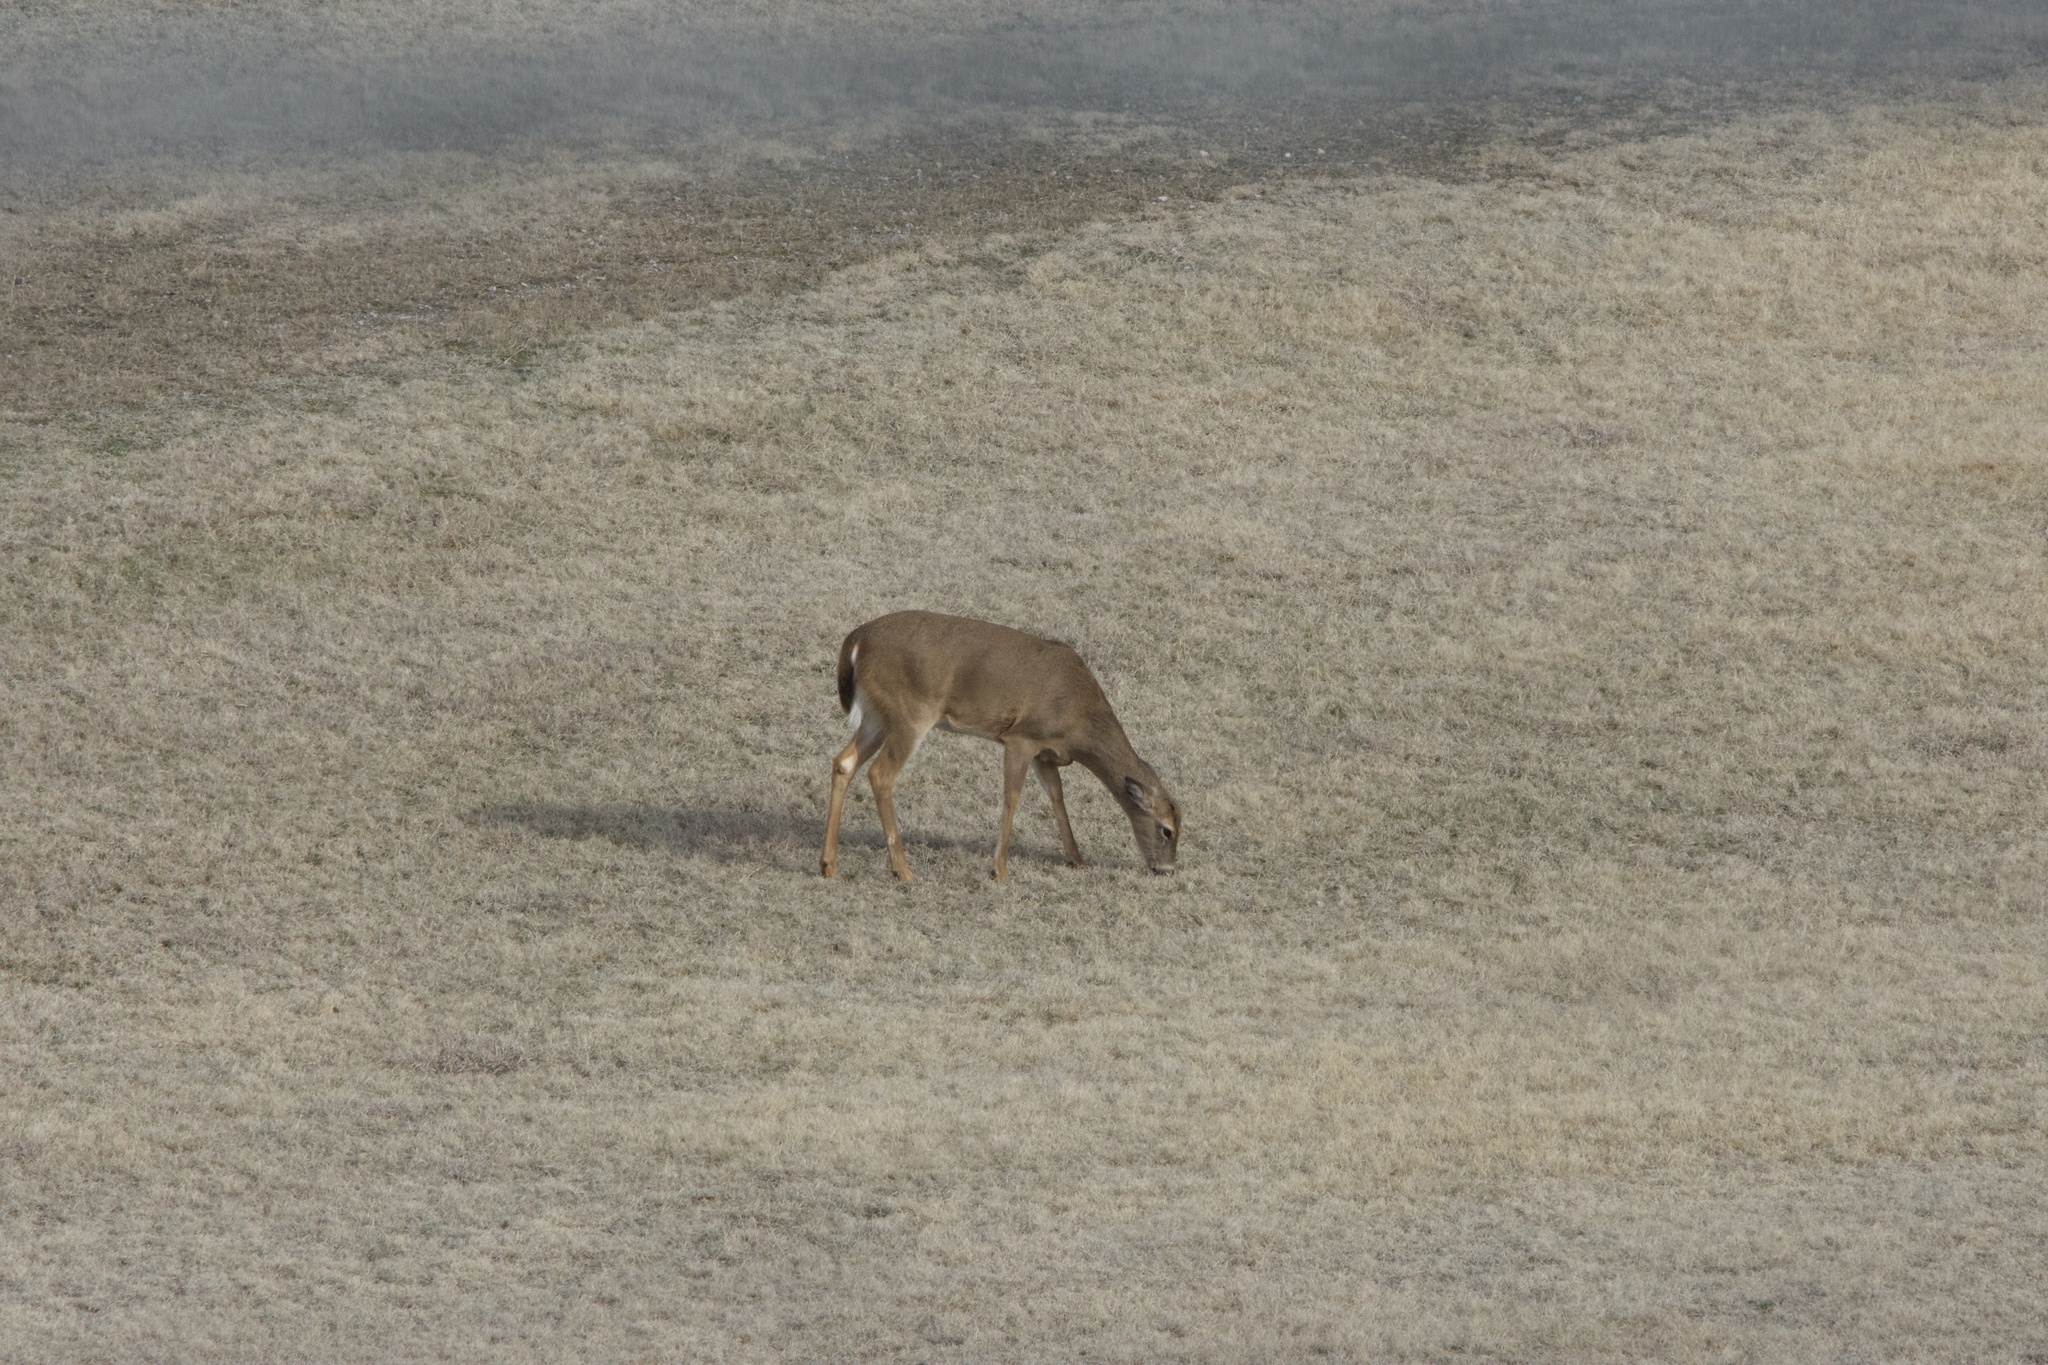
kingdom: Animalia
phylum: Chordata
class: Mammalia
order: Artiodactyla
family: Cervidae
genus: Odocoileus
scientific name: Odocoileus virginianus
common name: White-tailed deer
